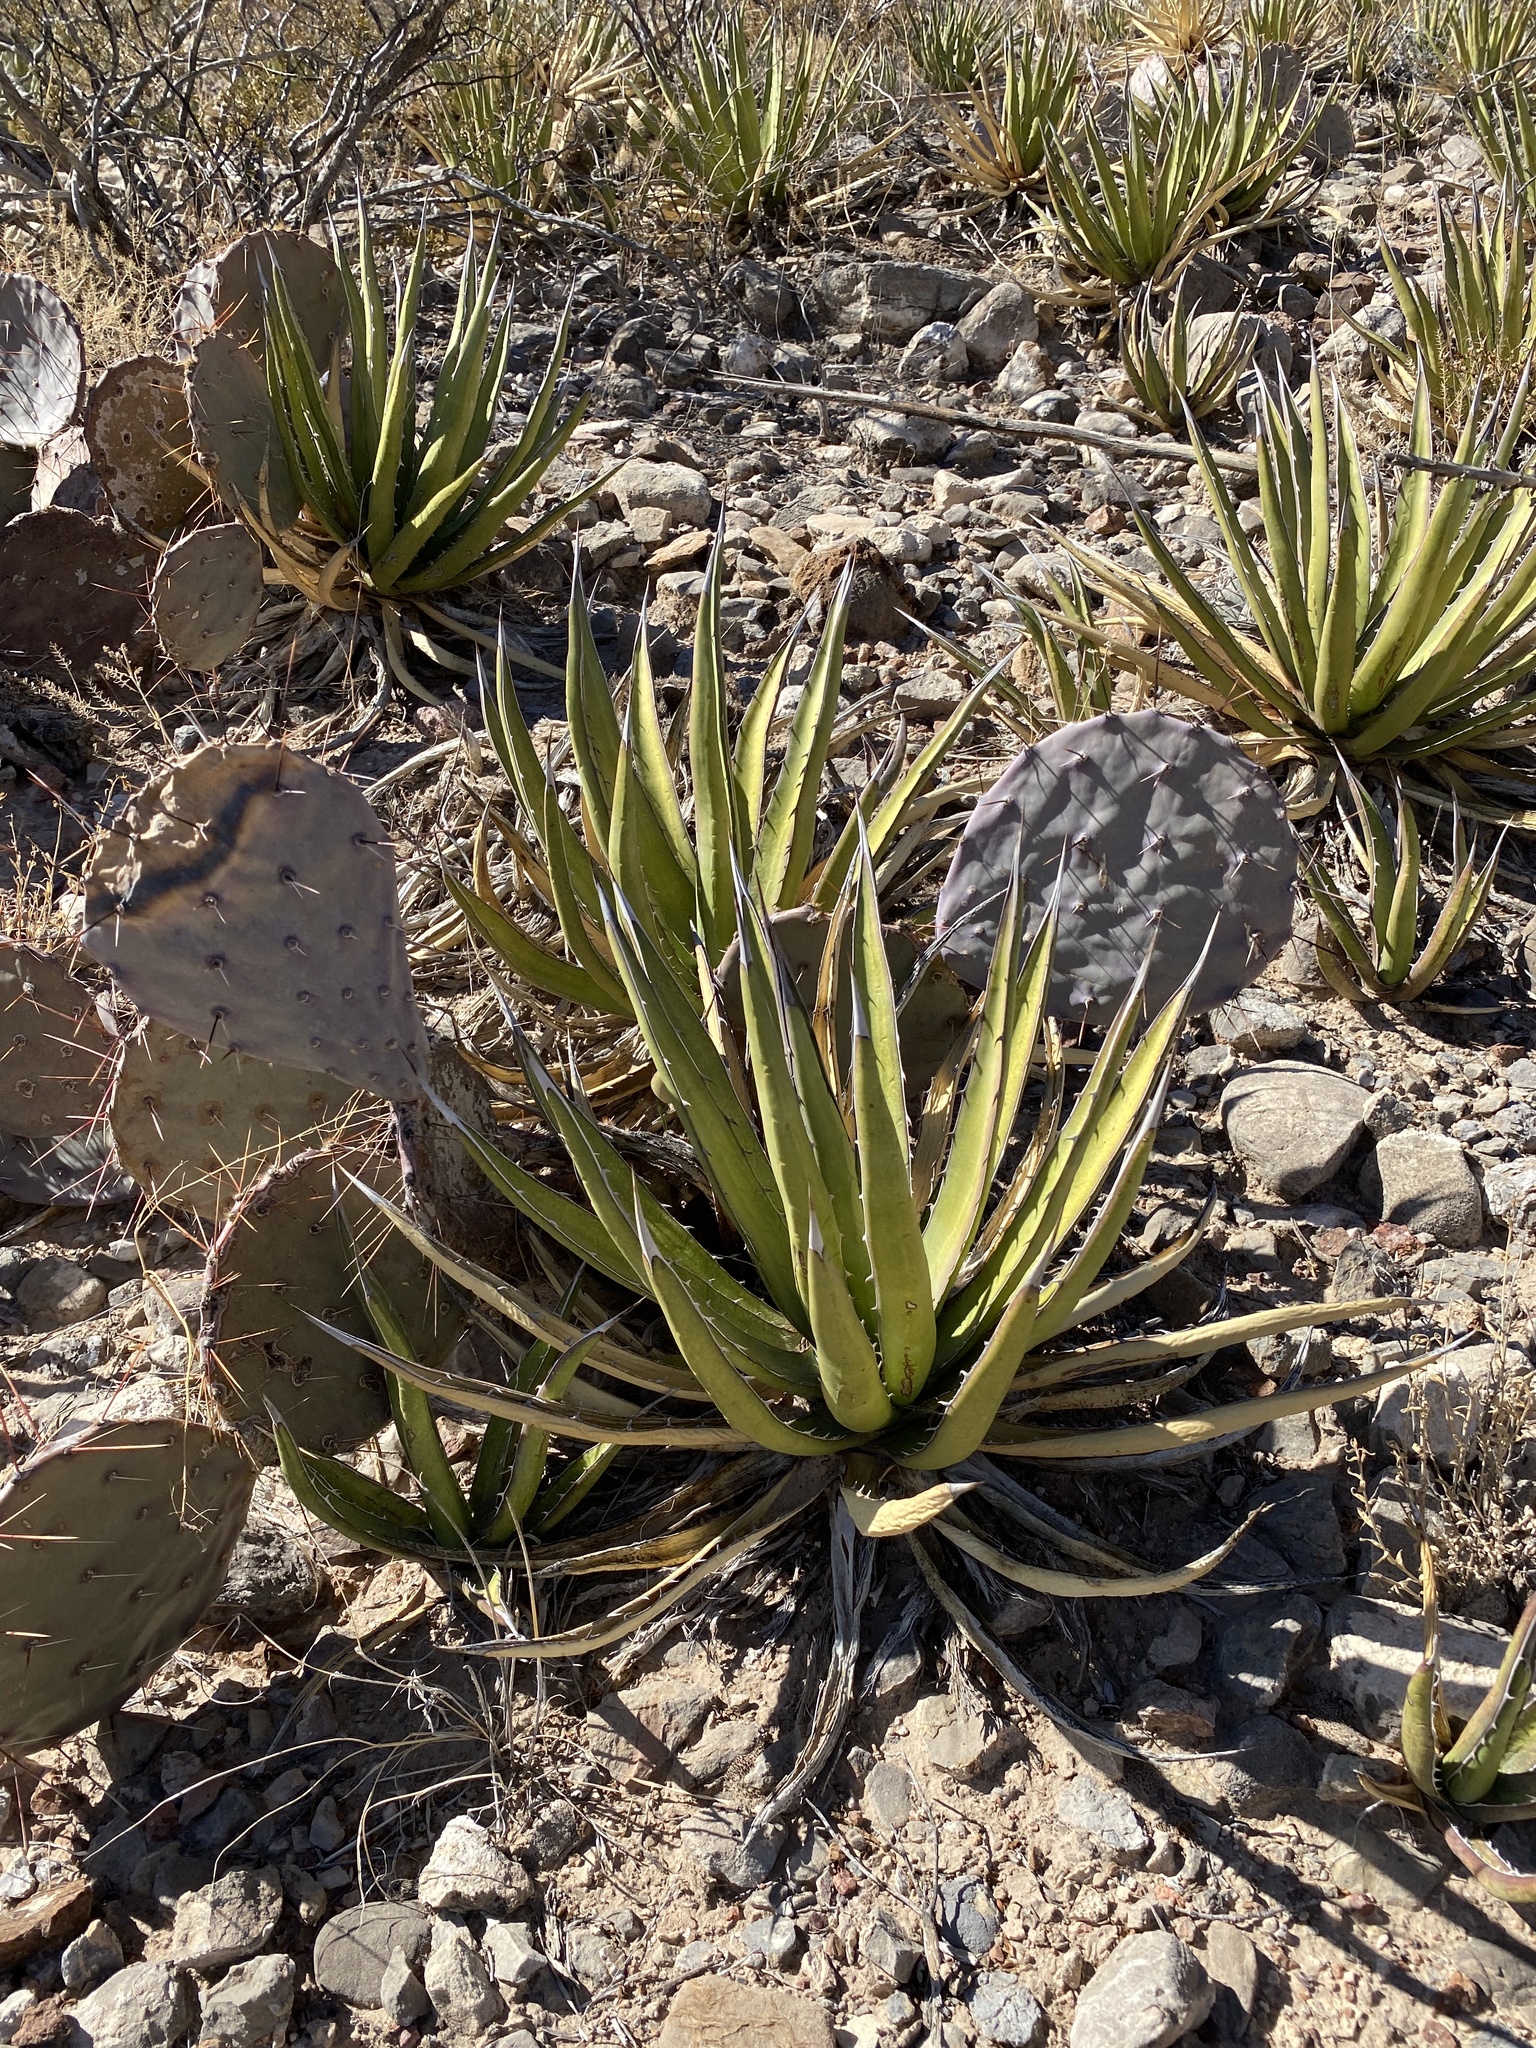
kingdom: Plantae
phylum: Tracheophyta
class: Liliopsida
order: Asparagales
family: Asparagaceae
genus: Agave
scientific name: Agave lechuguilla
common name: Lecheguilla agave
